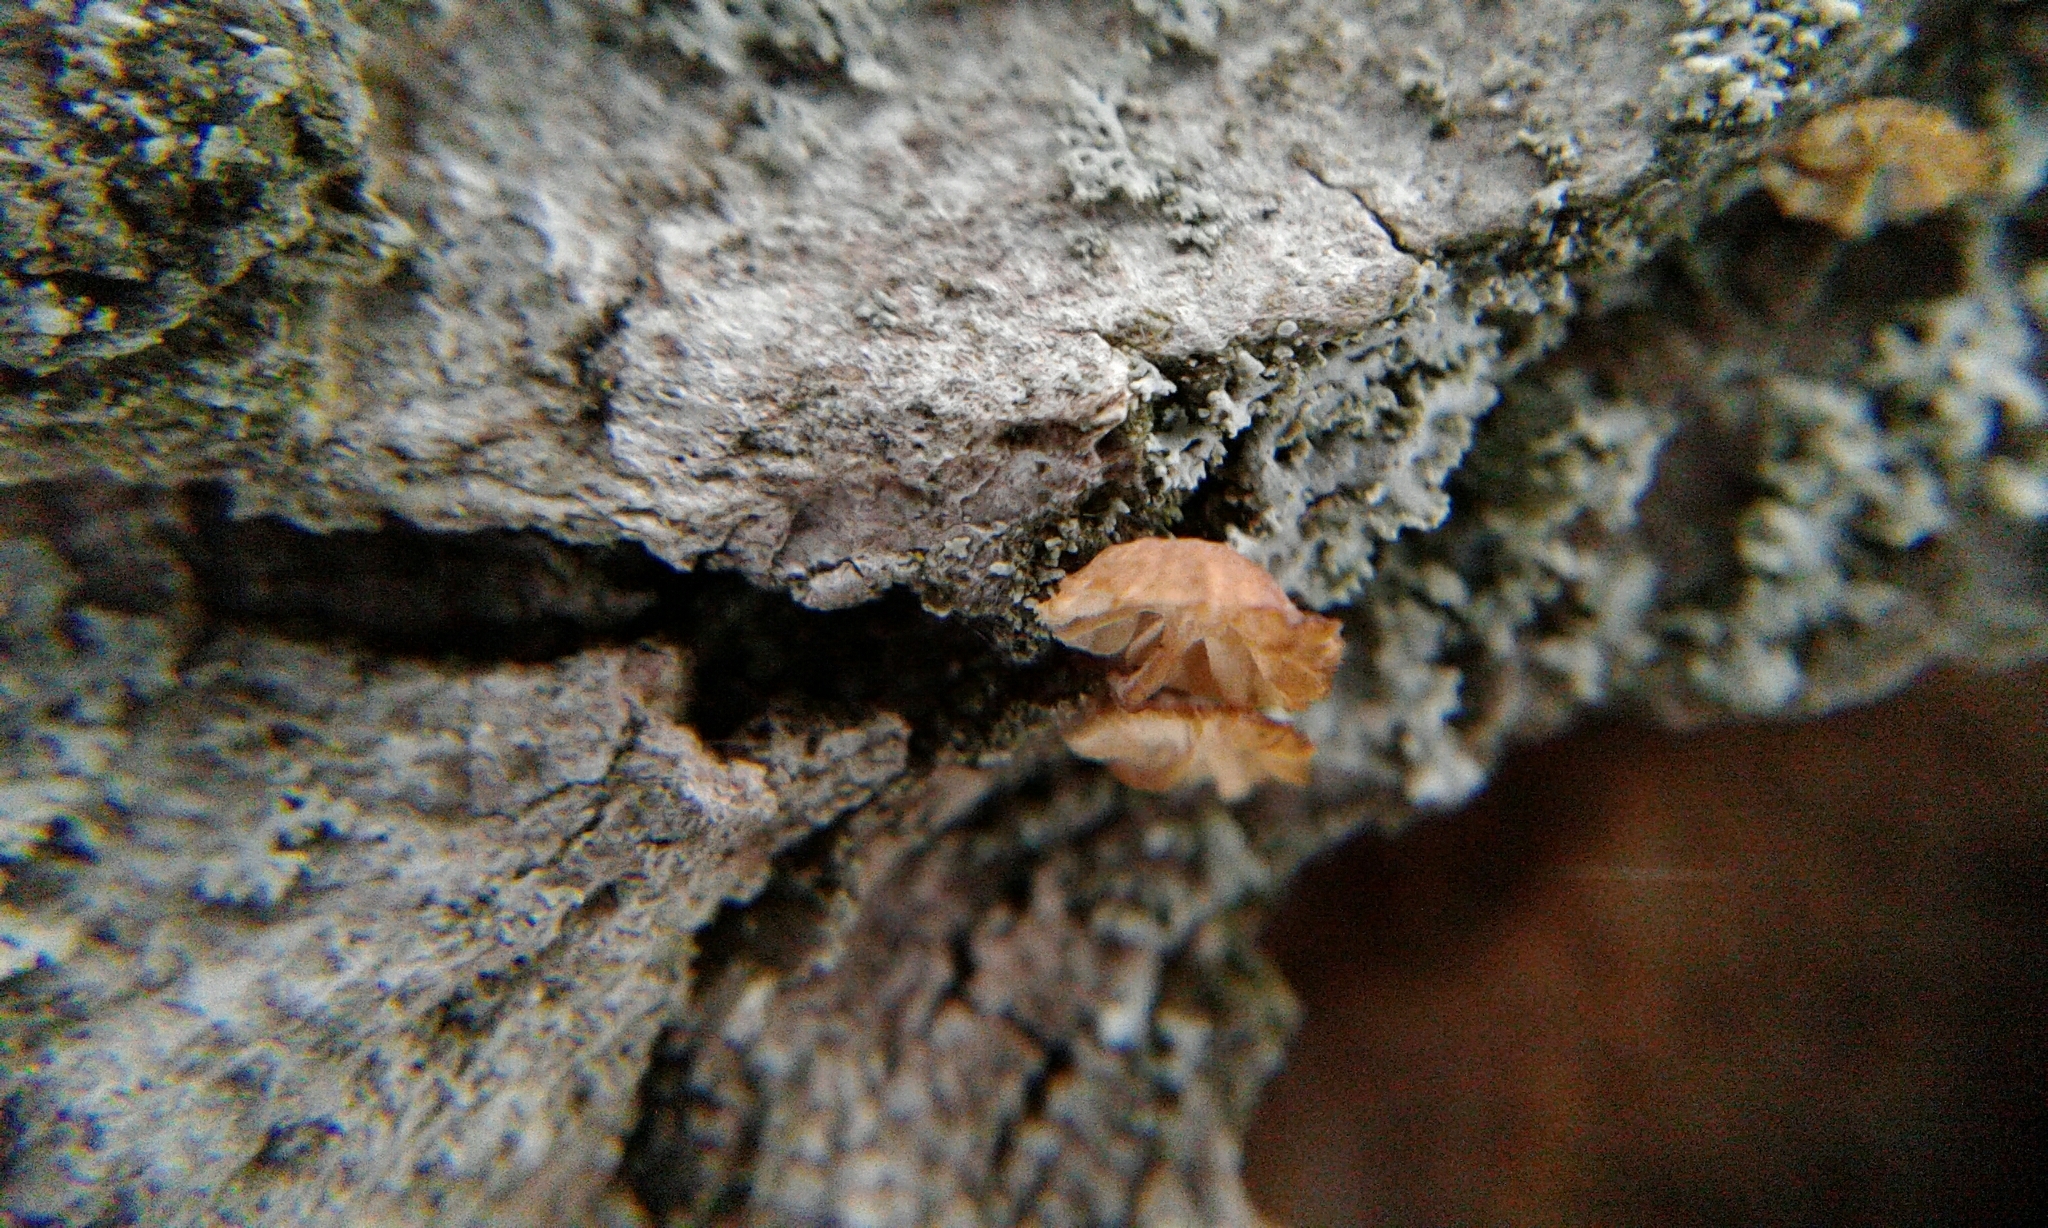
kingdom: Fungi
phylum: Basidiomycota
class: Agaricomycetes
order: Agaricales
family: Mycenaceae
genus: Mycena
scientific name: Mycena corticola
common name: Bark mycena
